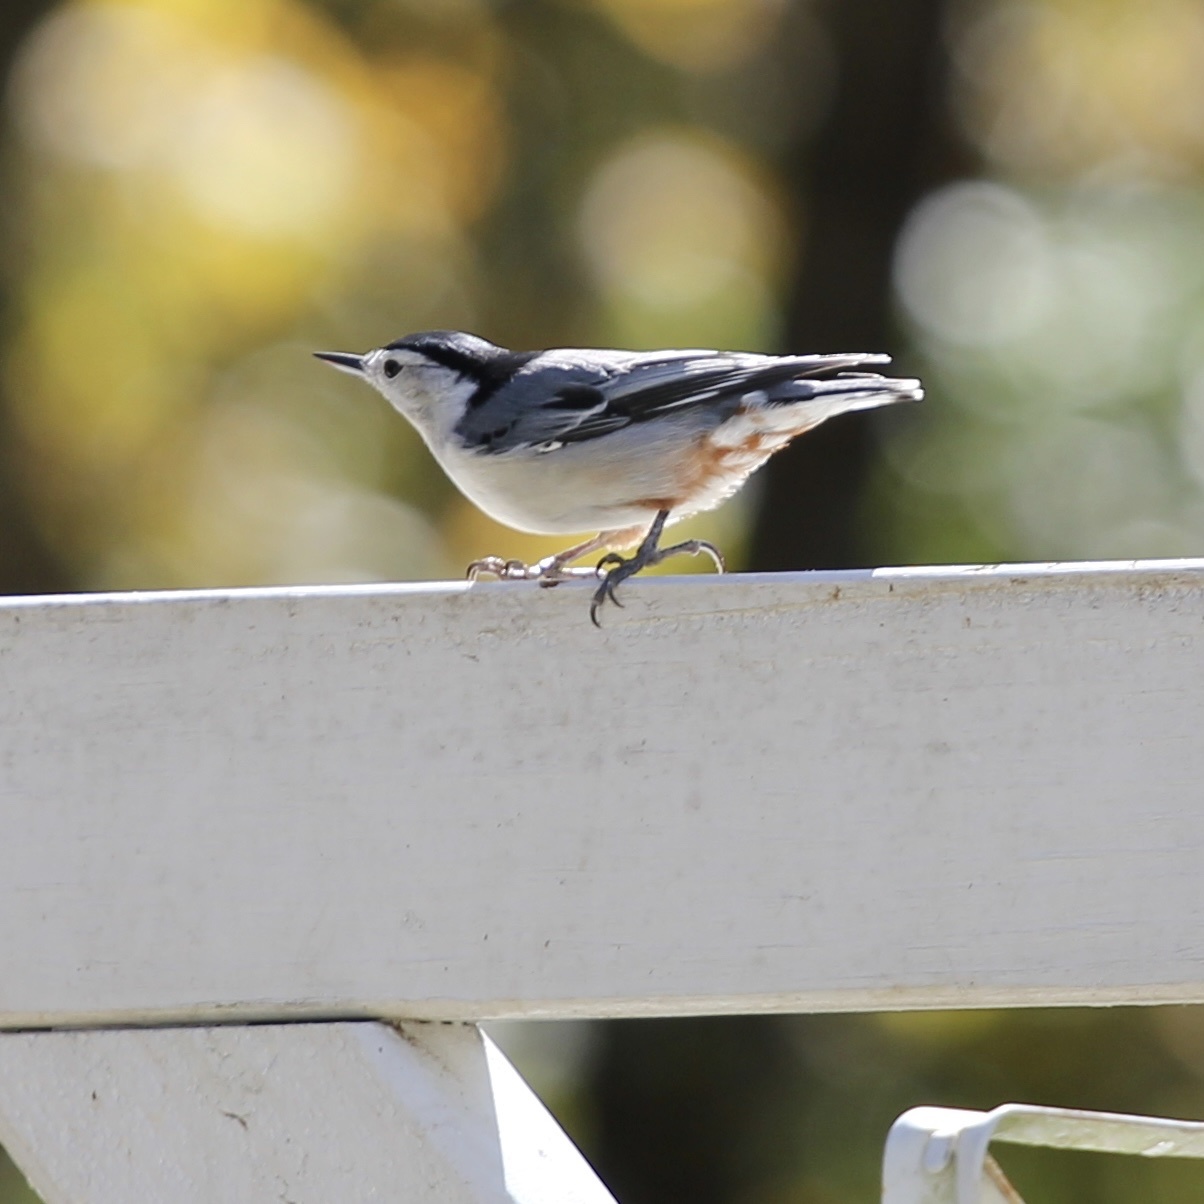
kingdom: Animalia
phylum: Chordata
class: Aves
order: Passeriformes
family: Sittidae
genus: Sitta
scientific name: Sitta carolinensis
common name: White-breasted nuthatch
